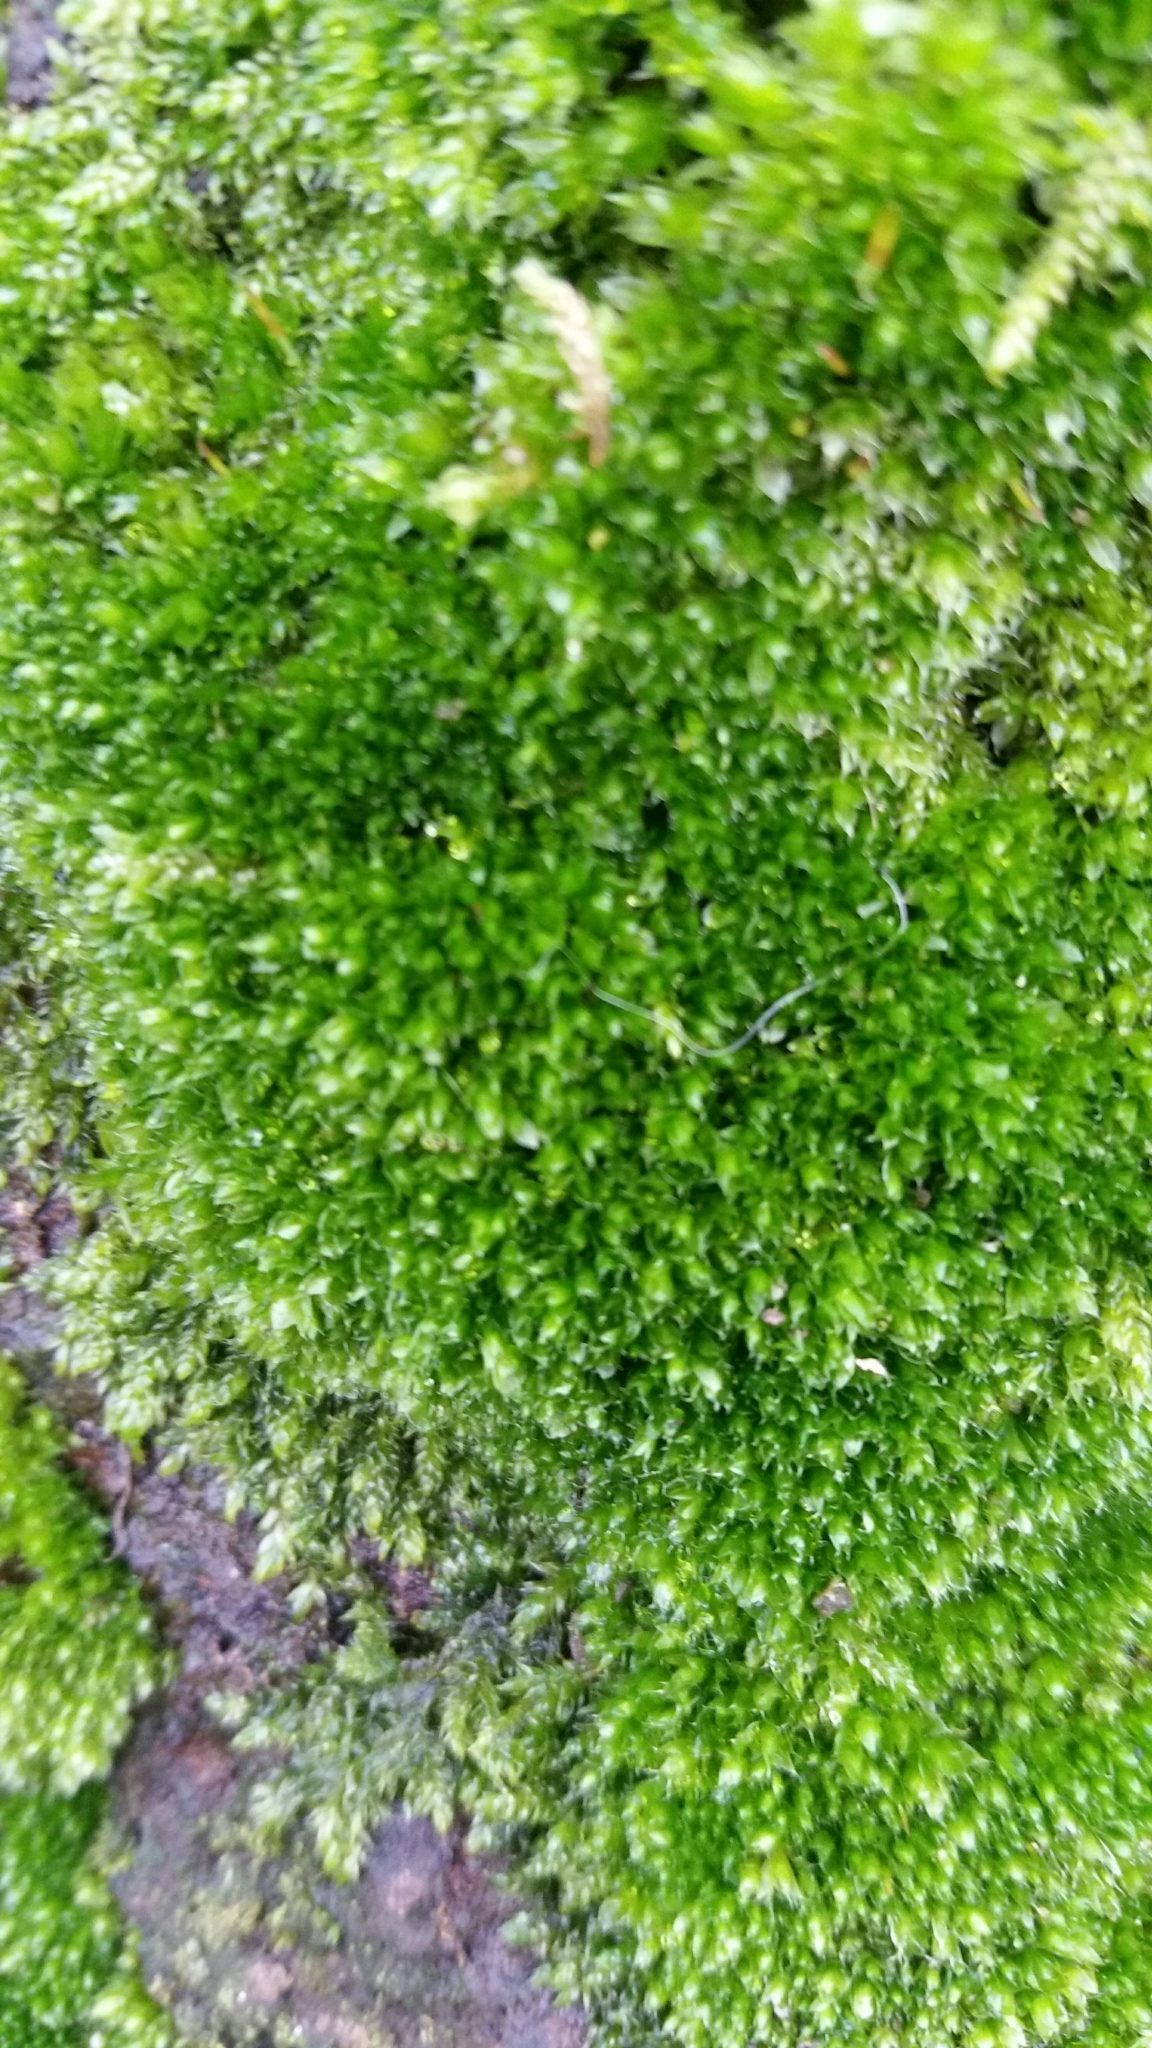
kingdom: Plantae
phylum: Bryophyta
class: Bryopsida
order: Bryales
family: Bryaceae
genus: Rosulabryum
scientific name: Rosulabryum capillare
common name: Capillary thread-moss
